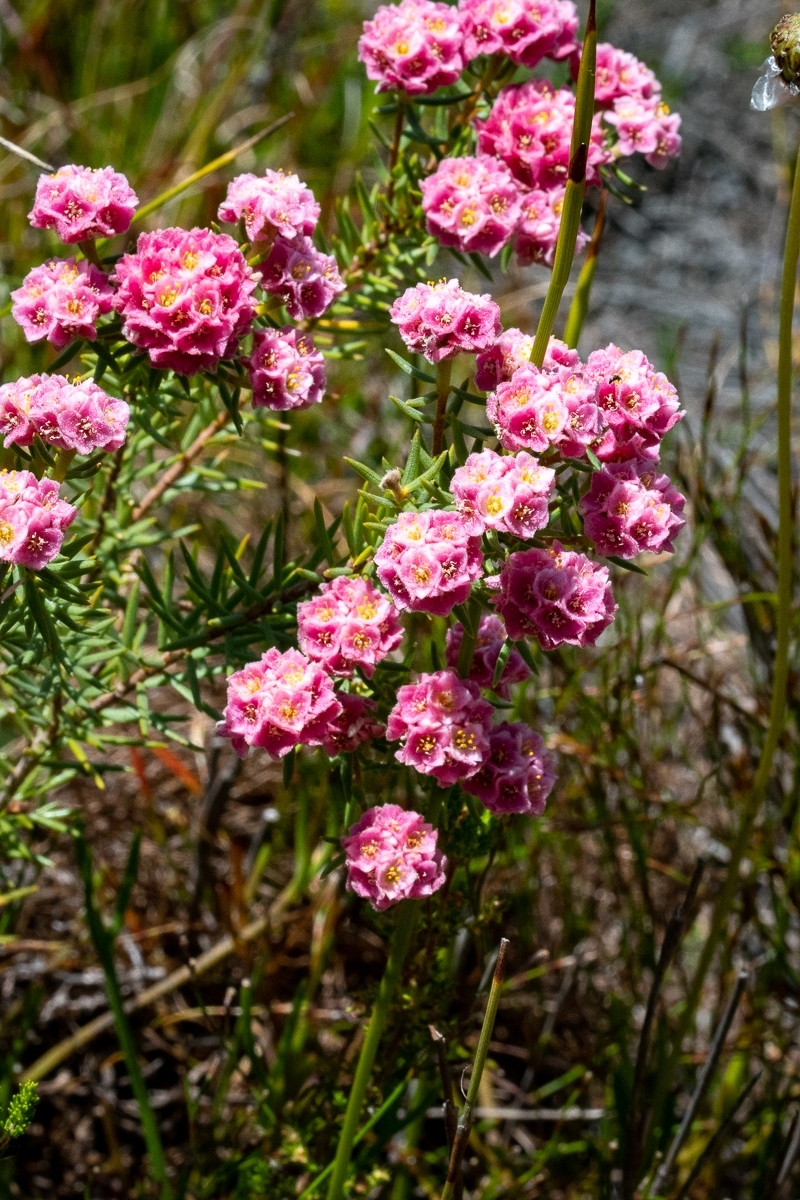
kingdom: Plantae
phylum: Tracheophyta
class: Magnoliopsida
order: Malvales
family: Thymelaeaceae
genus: Lachnaea
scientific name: Lachnaea densiflora
